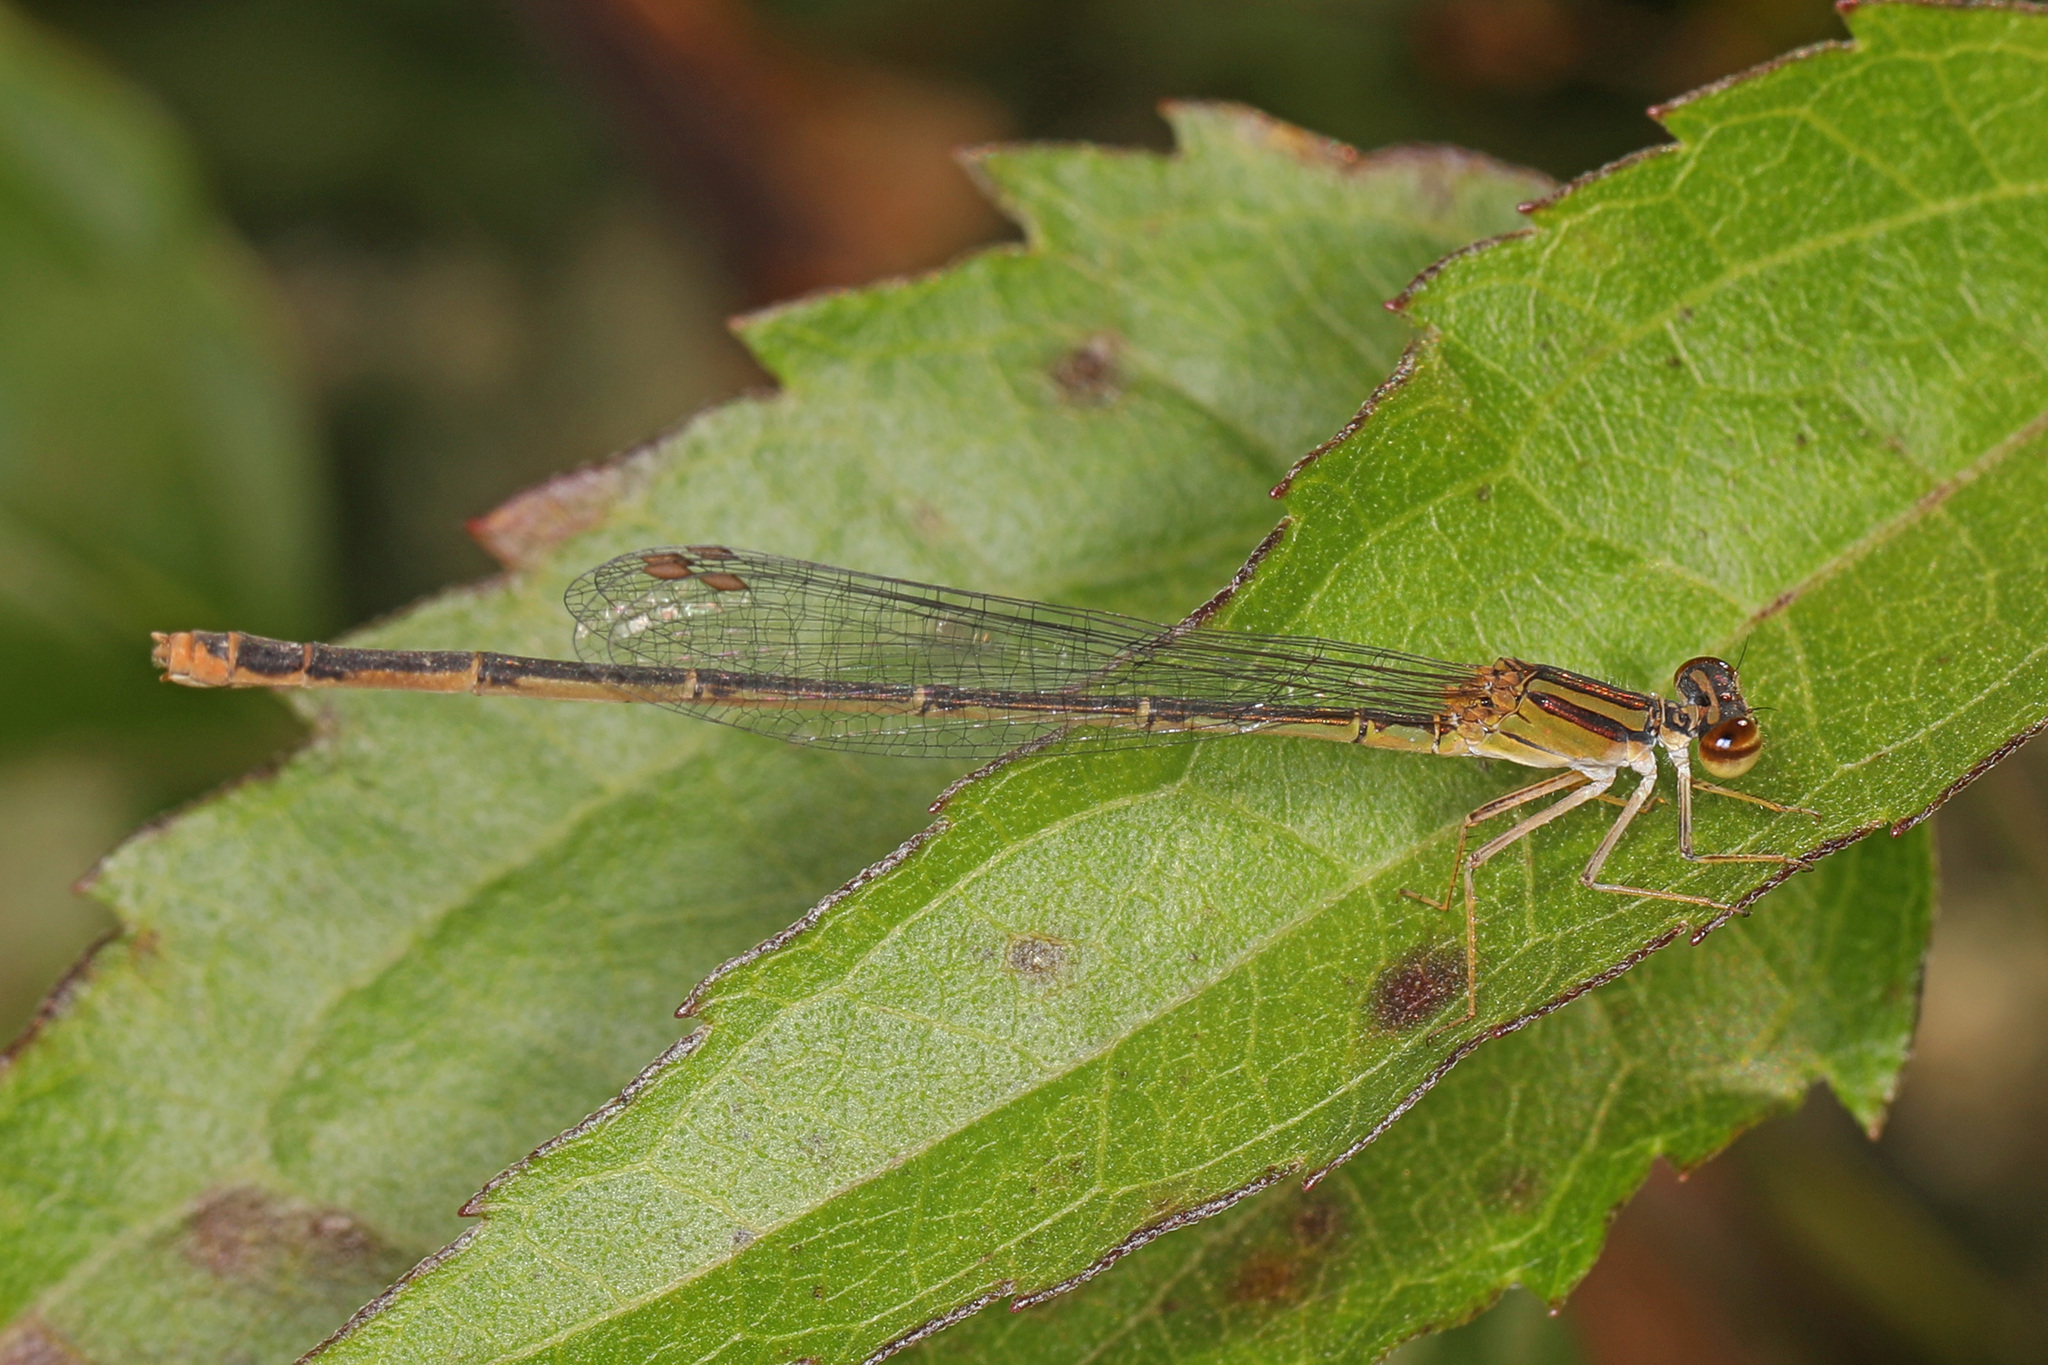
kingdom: Animalia
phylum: Arthropoda
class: Insecta
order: Odonata
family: Coenagrionidae
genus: Enallagma
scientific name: Enallagma signatum
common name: Orange bluet
